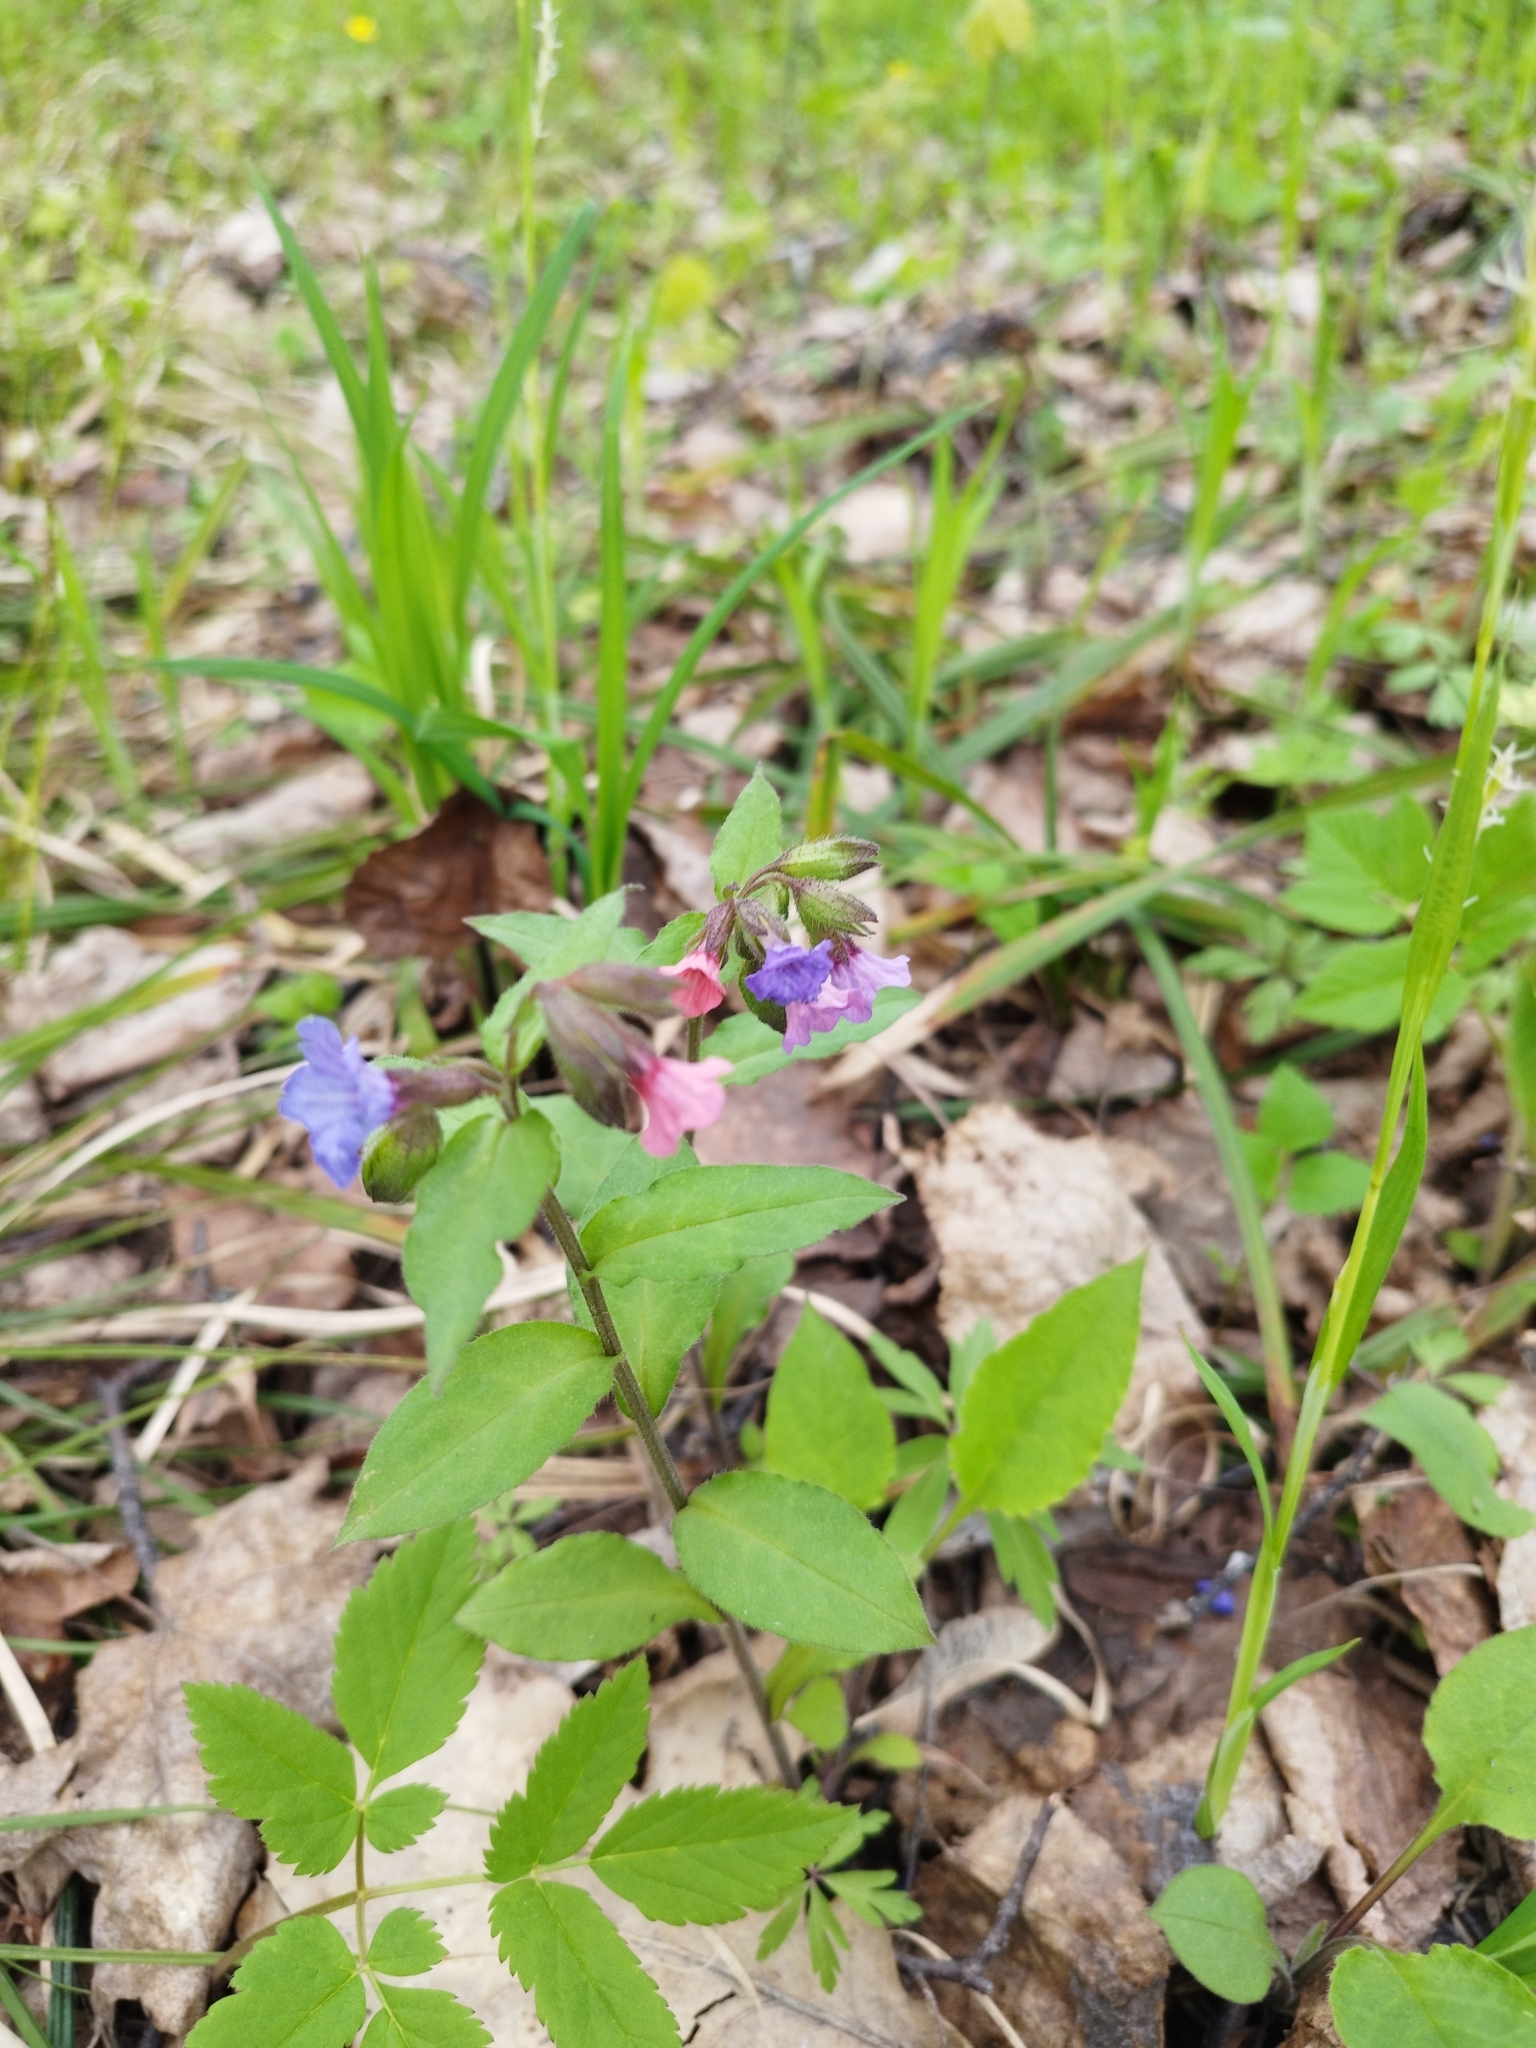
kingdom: Plantae
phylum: Tracheophyta
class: Magnoliopsida
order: Boraginales
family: Boraginaceae
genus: Pulmonaria
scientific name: Pulmonaria obscura
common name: Suffolk lungwort
